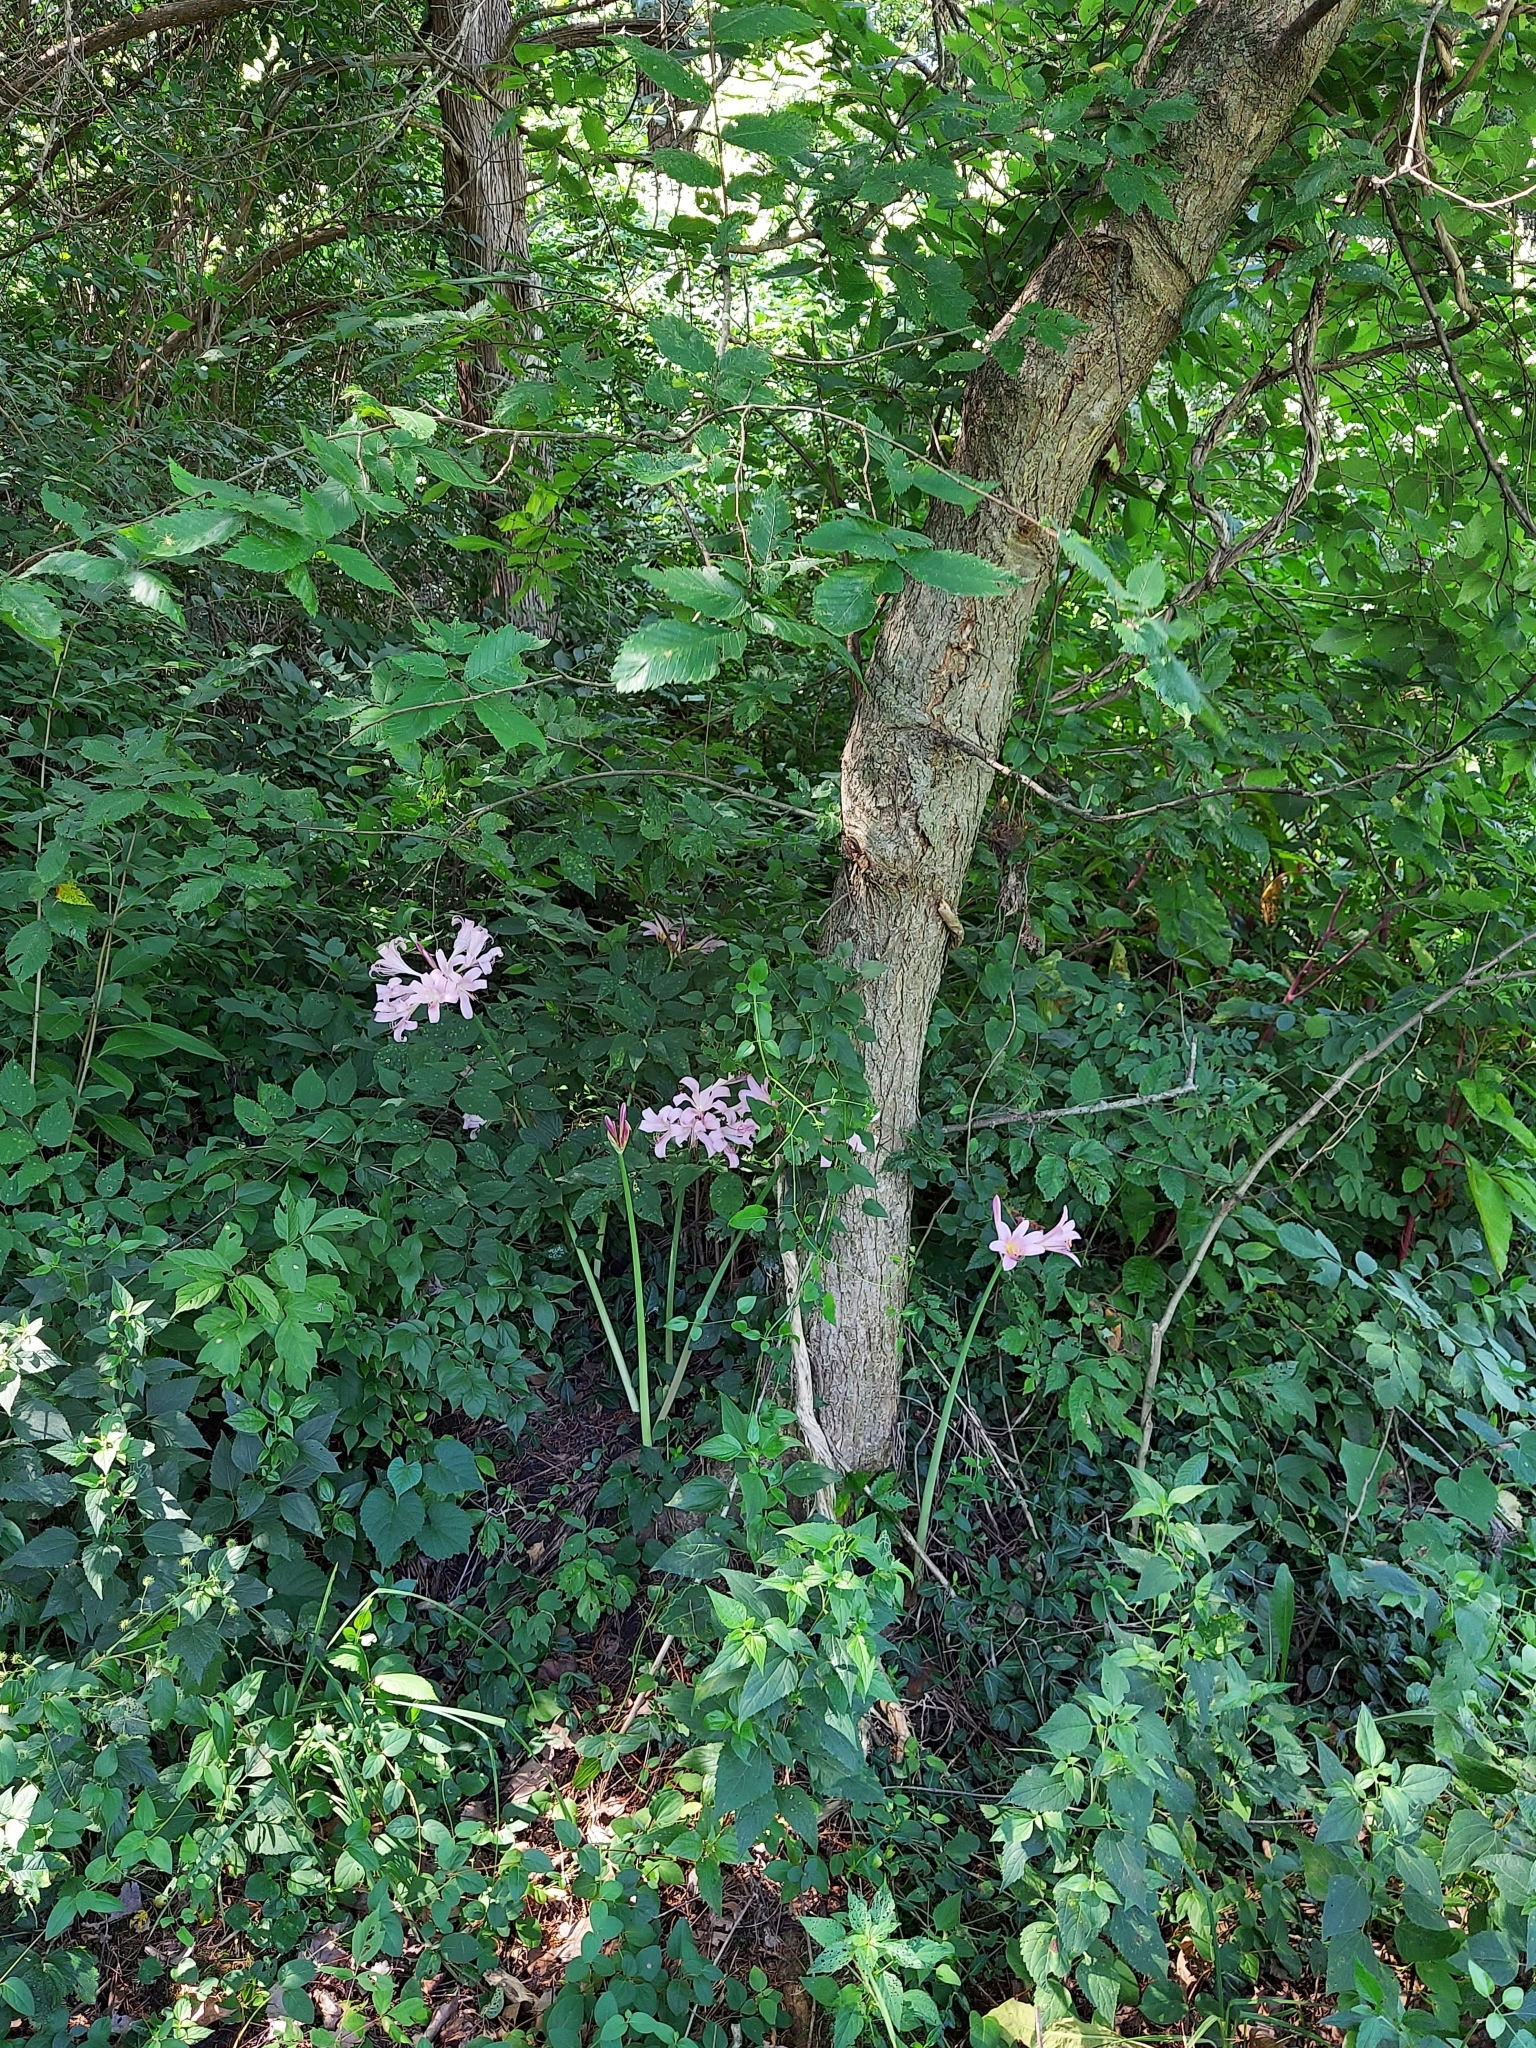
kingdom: Plantae
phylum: Tracheophyta
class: Liliopsida
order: Asparagales
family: Amaryllidaceae
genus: Lycoris
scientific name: Lycoris squamigera
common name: Magic-lily
